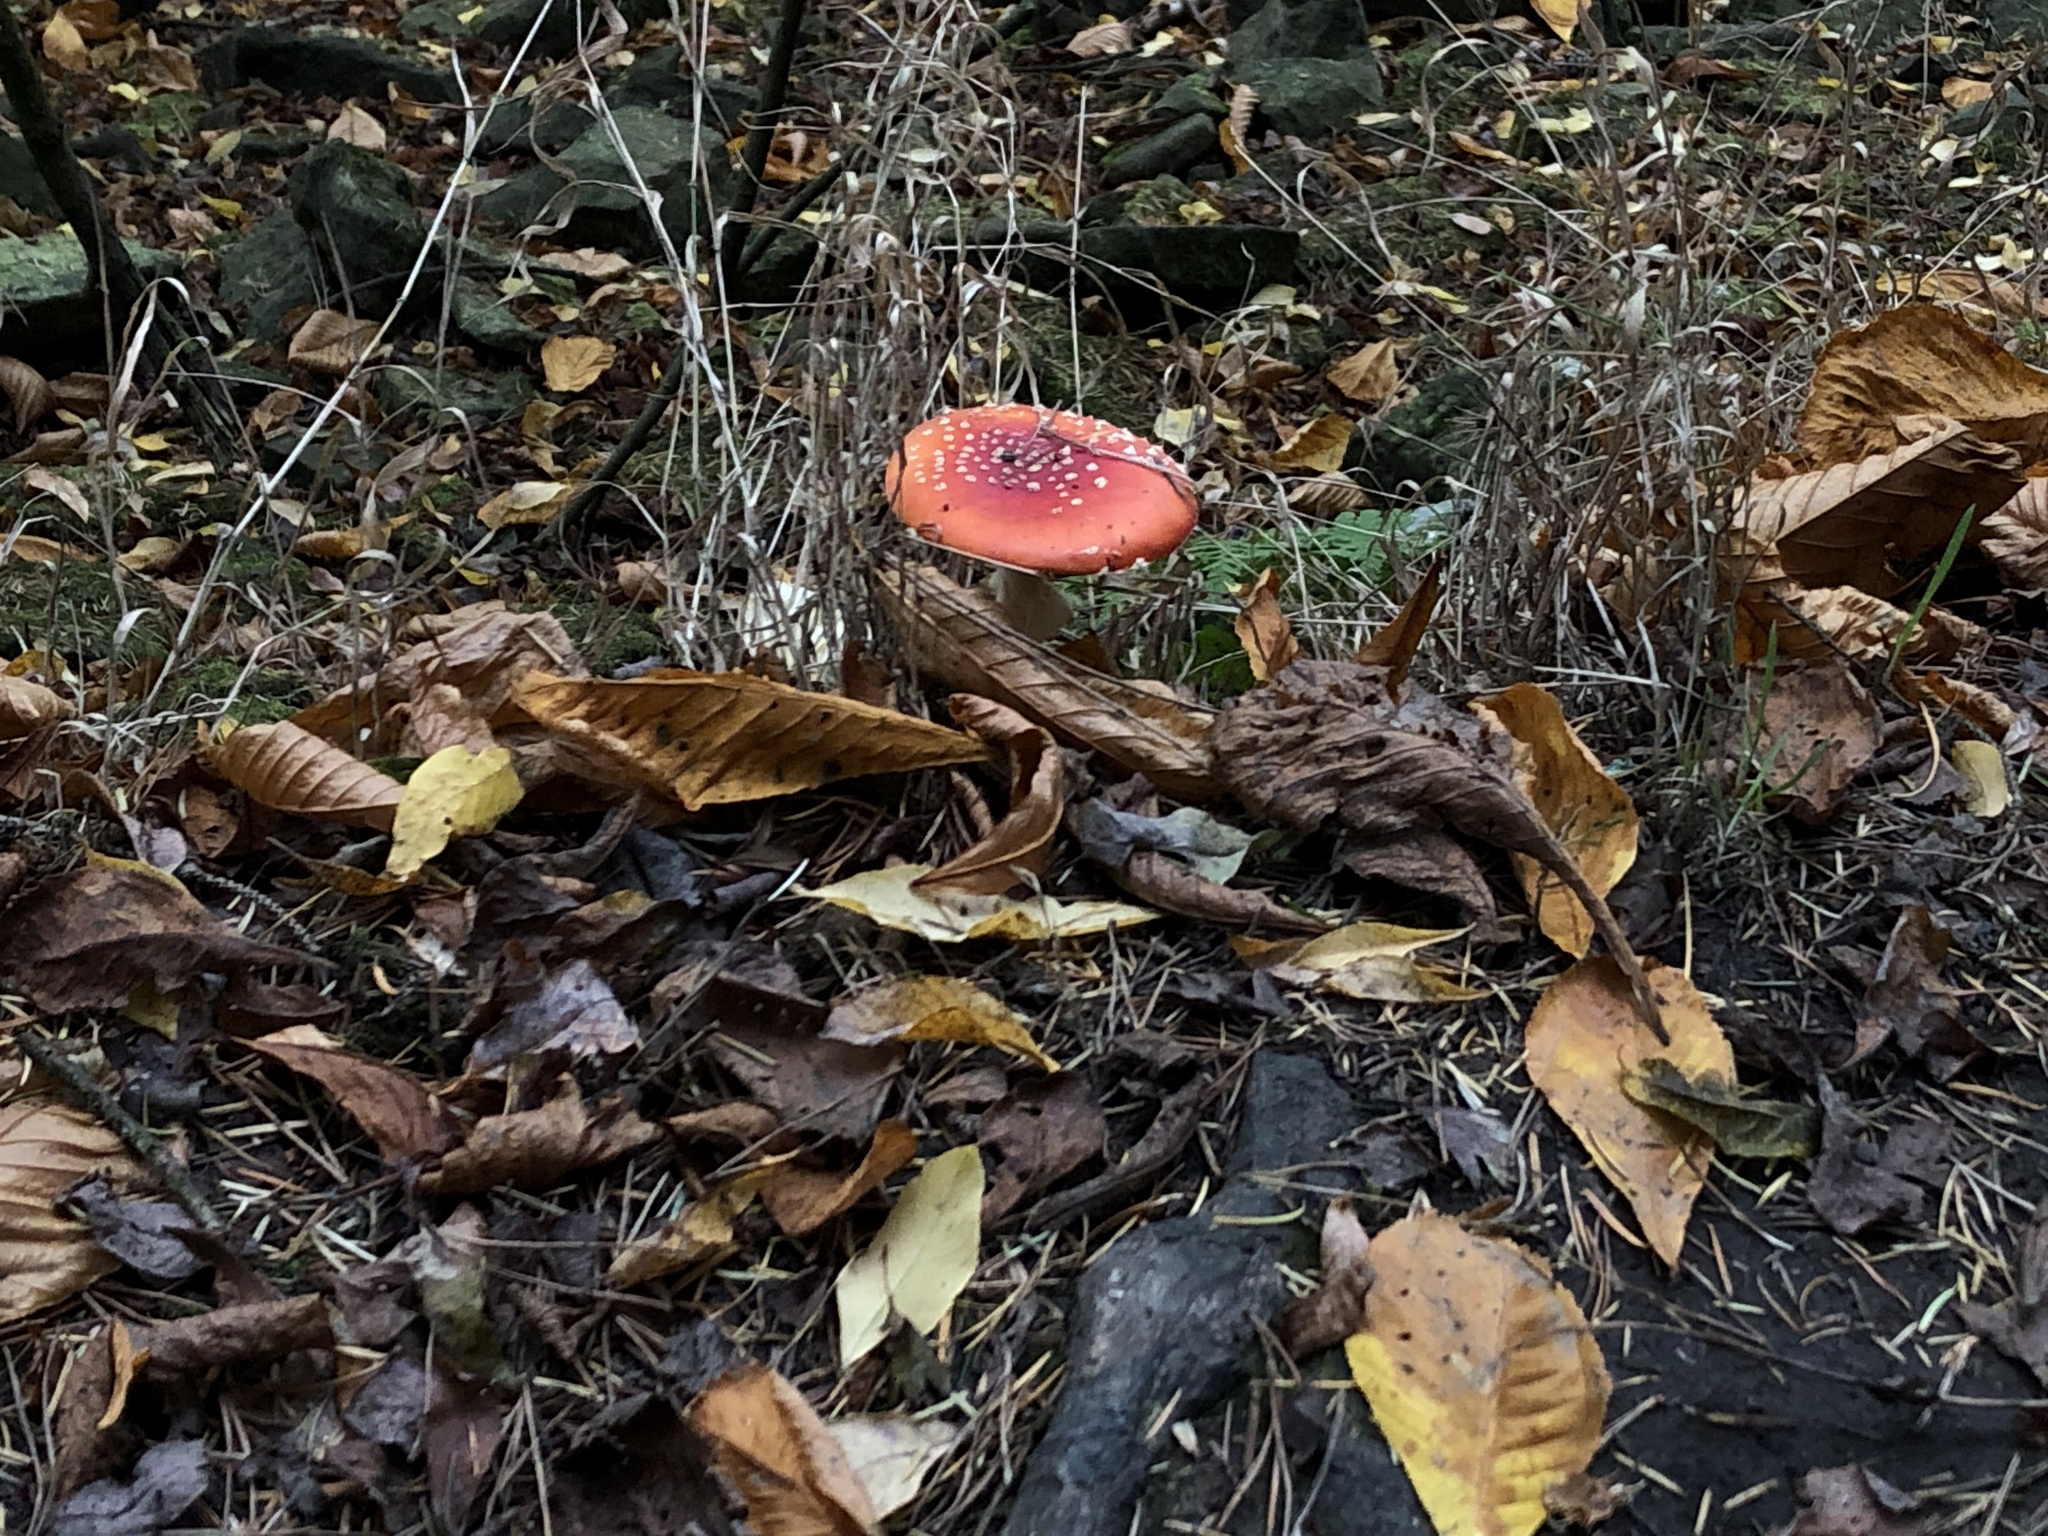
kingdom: Fungi
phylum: Basidiomycota
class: Agaricomycetes
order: Agaricales
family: Amanitaceae
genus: Amanita
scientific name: Amanita muscaria
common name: Fly agaric
